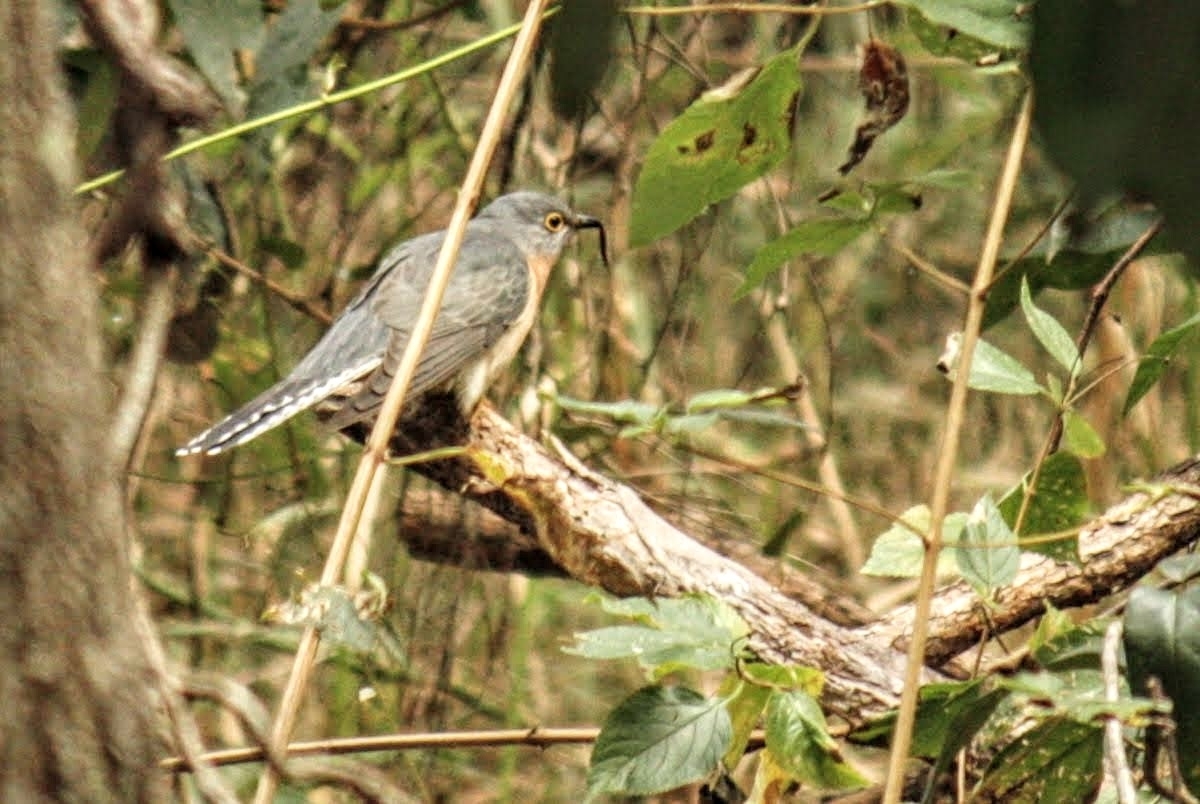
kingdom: Animalia
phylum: Chordata
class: Aves
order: Cuculiformes
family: Cuculidae
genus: Cacomantis
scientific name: Cacomantis flabelliformis
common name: Fan-tailed cuckoo
